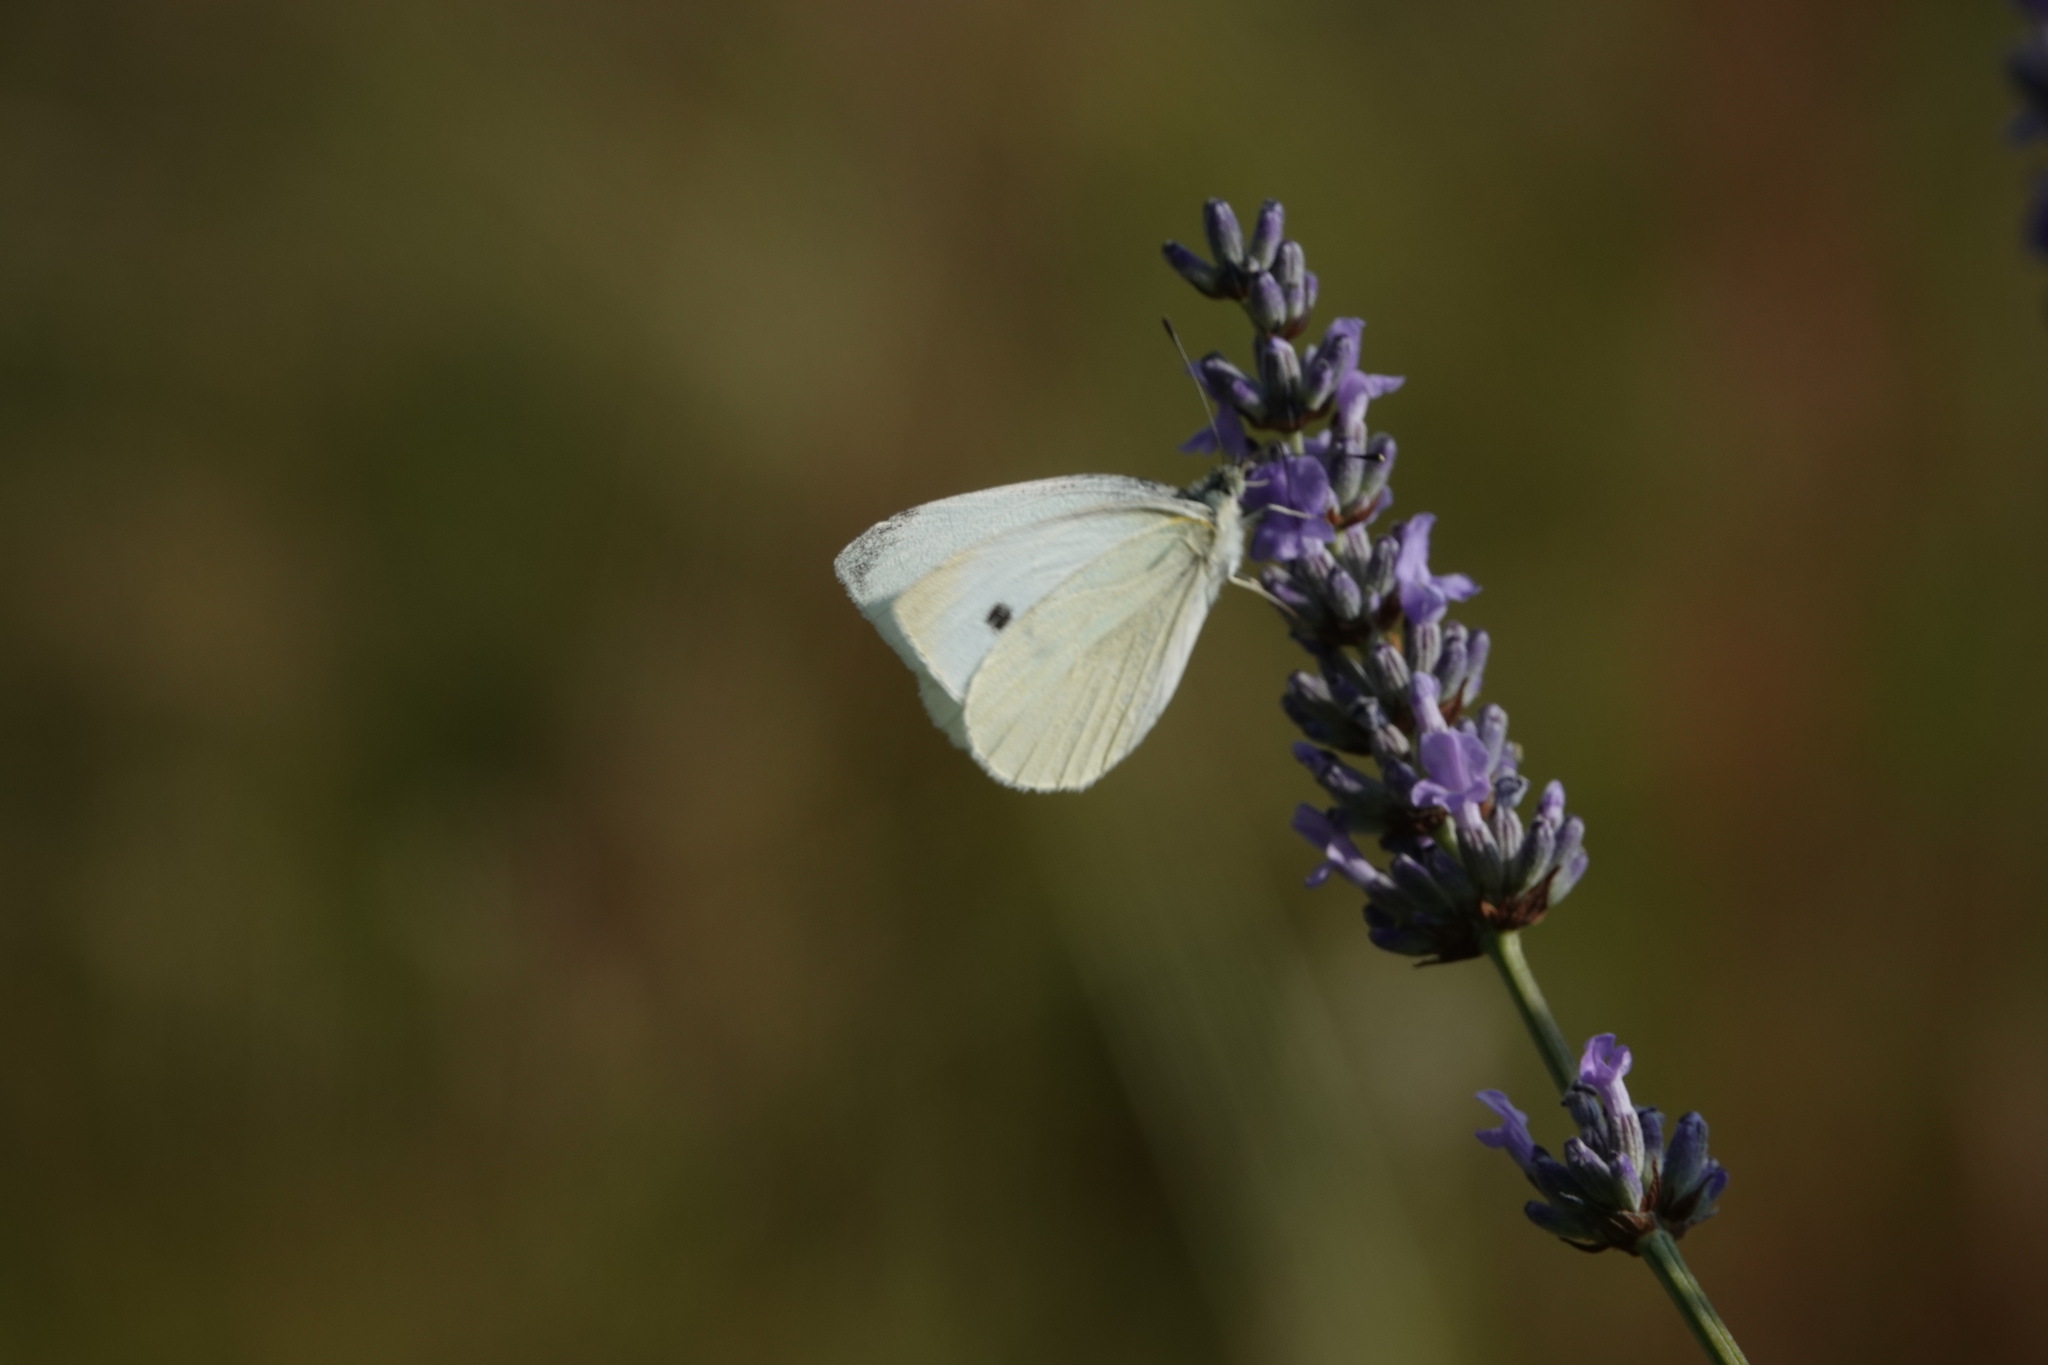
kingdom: Animalia
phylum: Arthropoda
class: Insecta
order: Lepidoptera
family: Pieridae
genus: Pieris
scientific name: Pieris rapae
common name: Small white
